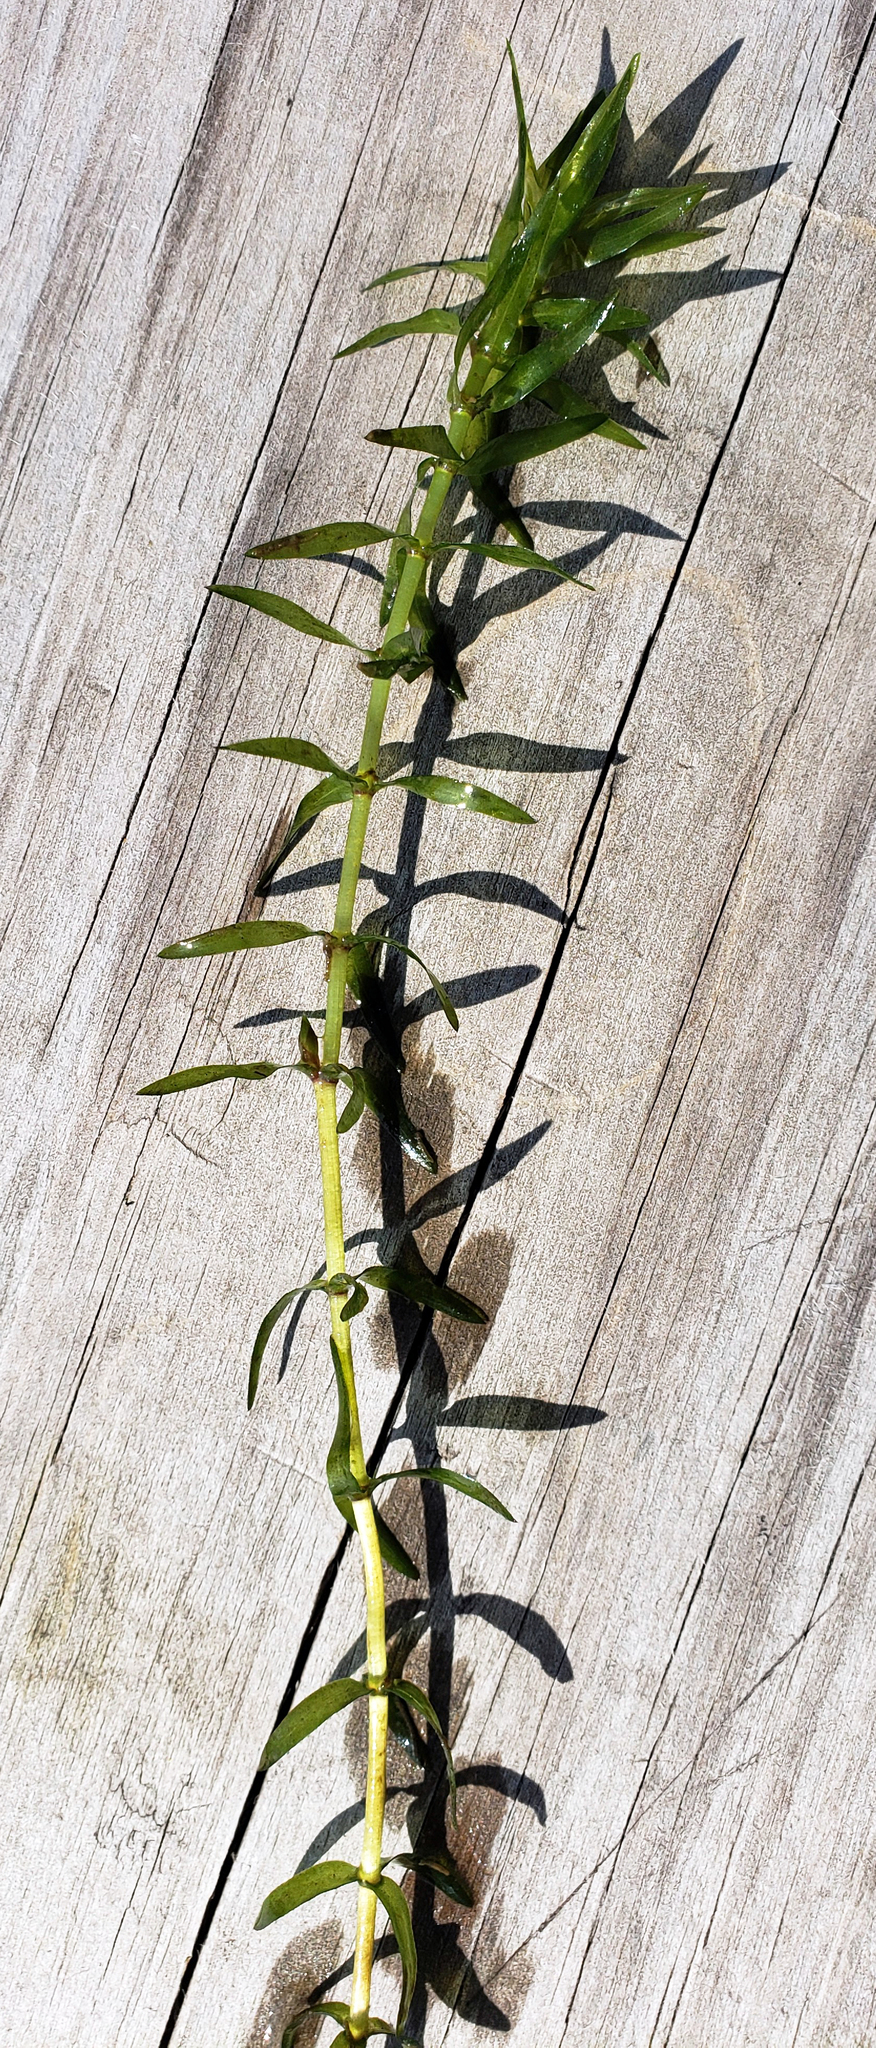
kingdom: Plantae
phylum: Tracheophyta
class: Liliopsida
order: Alismatales
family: Hydrocharitaceae
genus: Elodea
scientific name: Elodea nuttallii
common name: Nuttall's waterweed
